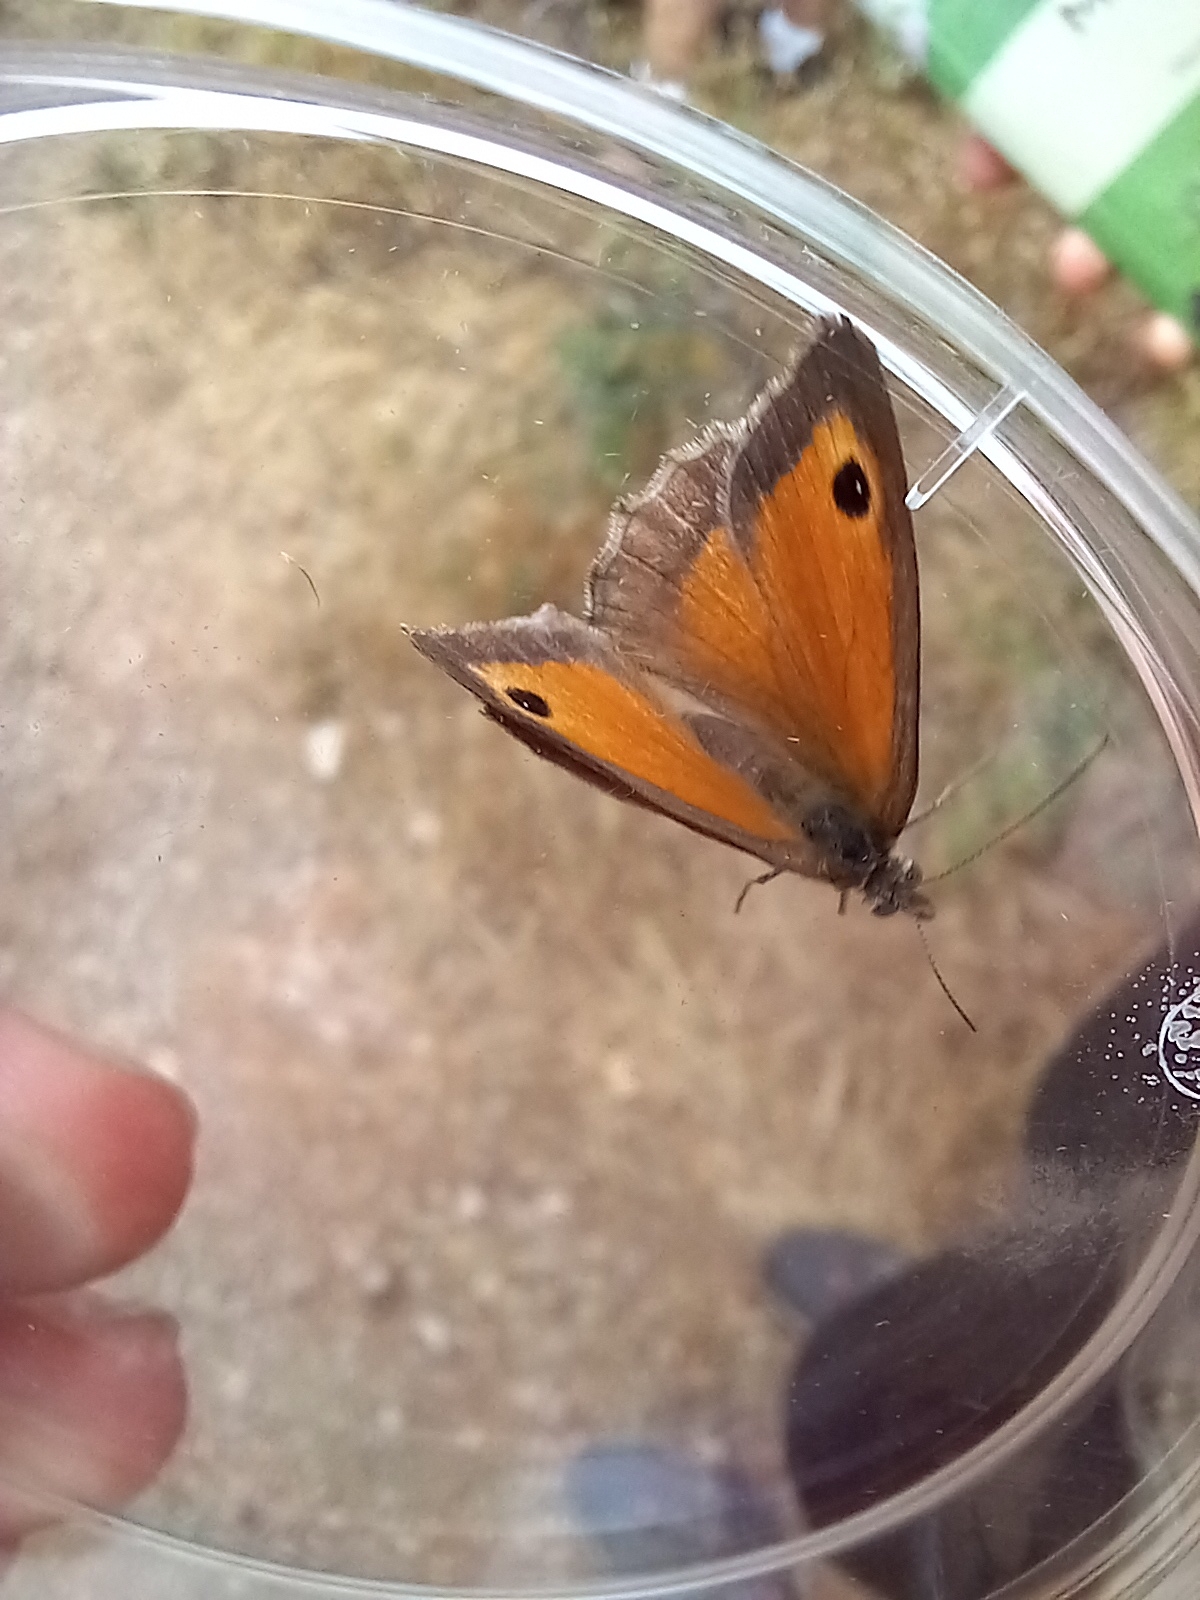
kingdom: Animalia
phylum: Arthropoda
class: Insecta
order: Lepidoptera
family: Nymphalidae
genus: Pyronia
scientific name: Pyronia tithonus
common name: Gatekeeper
